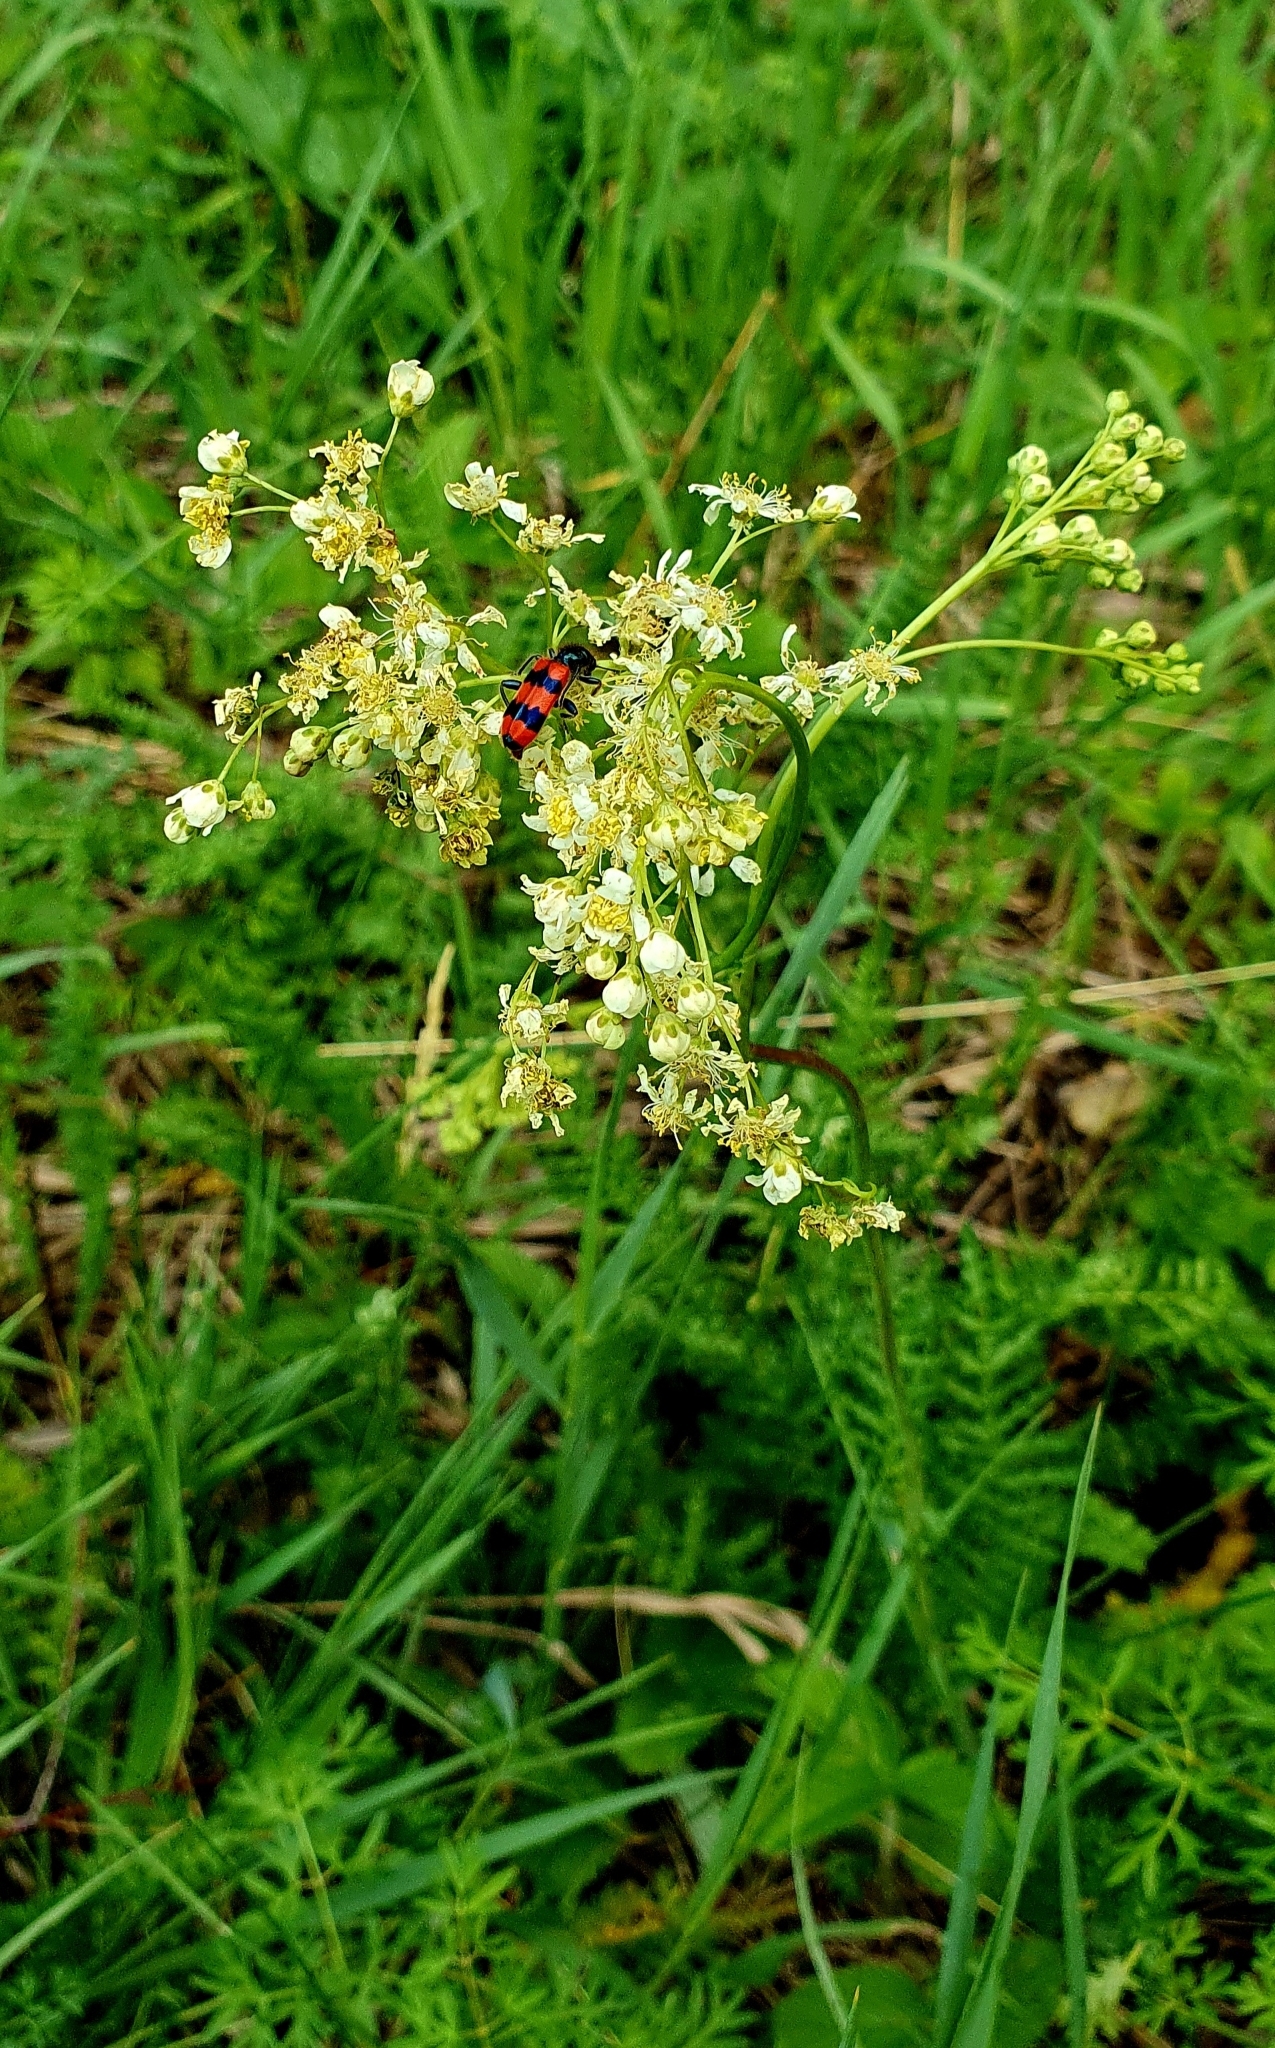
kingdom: Plantae
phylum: Tracheophyta
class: Magnoliopsida
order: Rosales
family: Rosaceae
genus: Filipendula
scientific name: Filipendula vulgaris
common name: Dropwort
